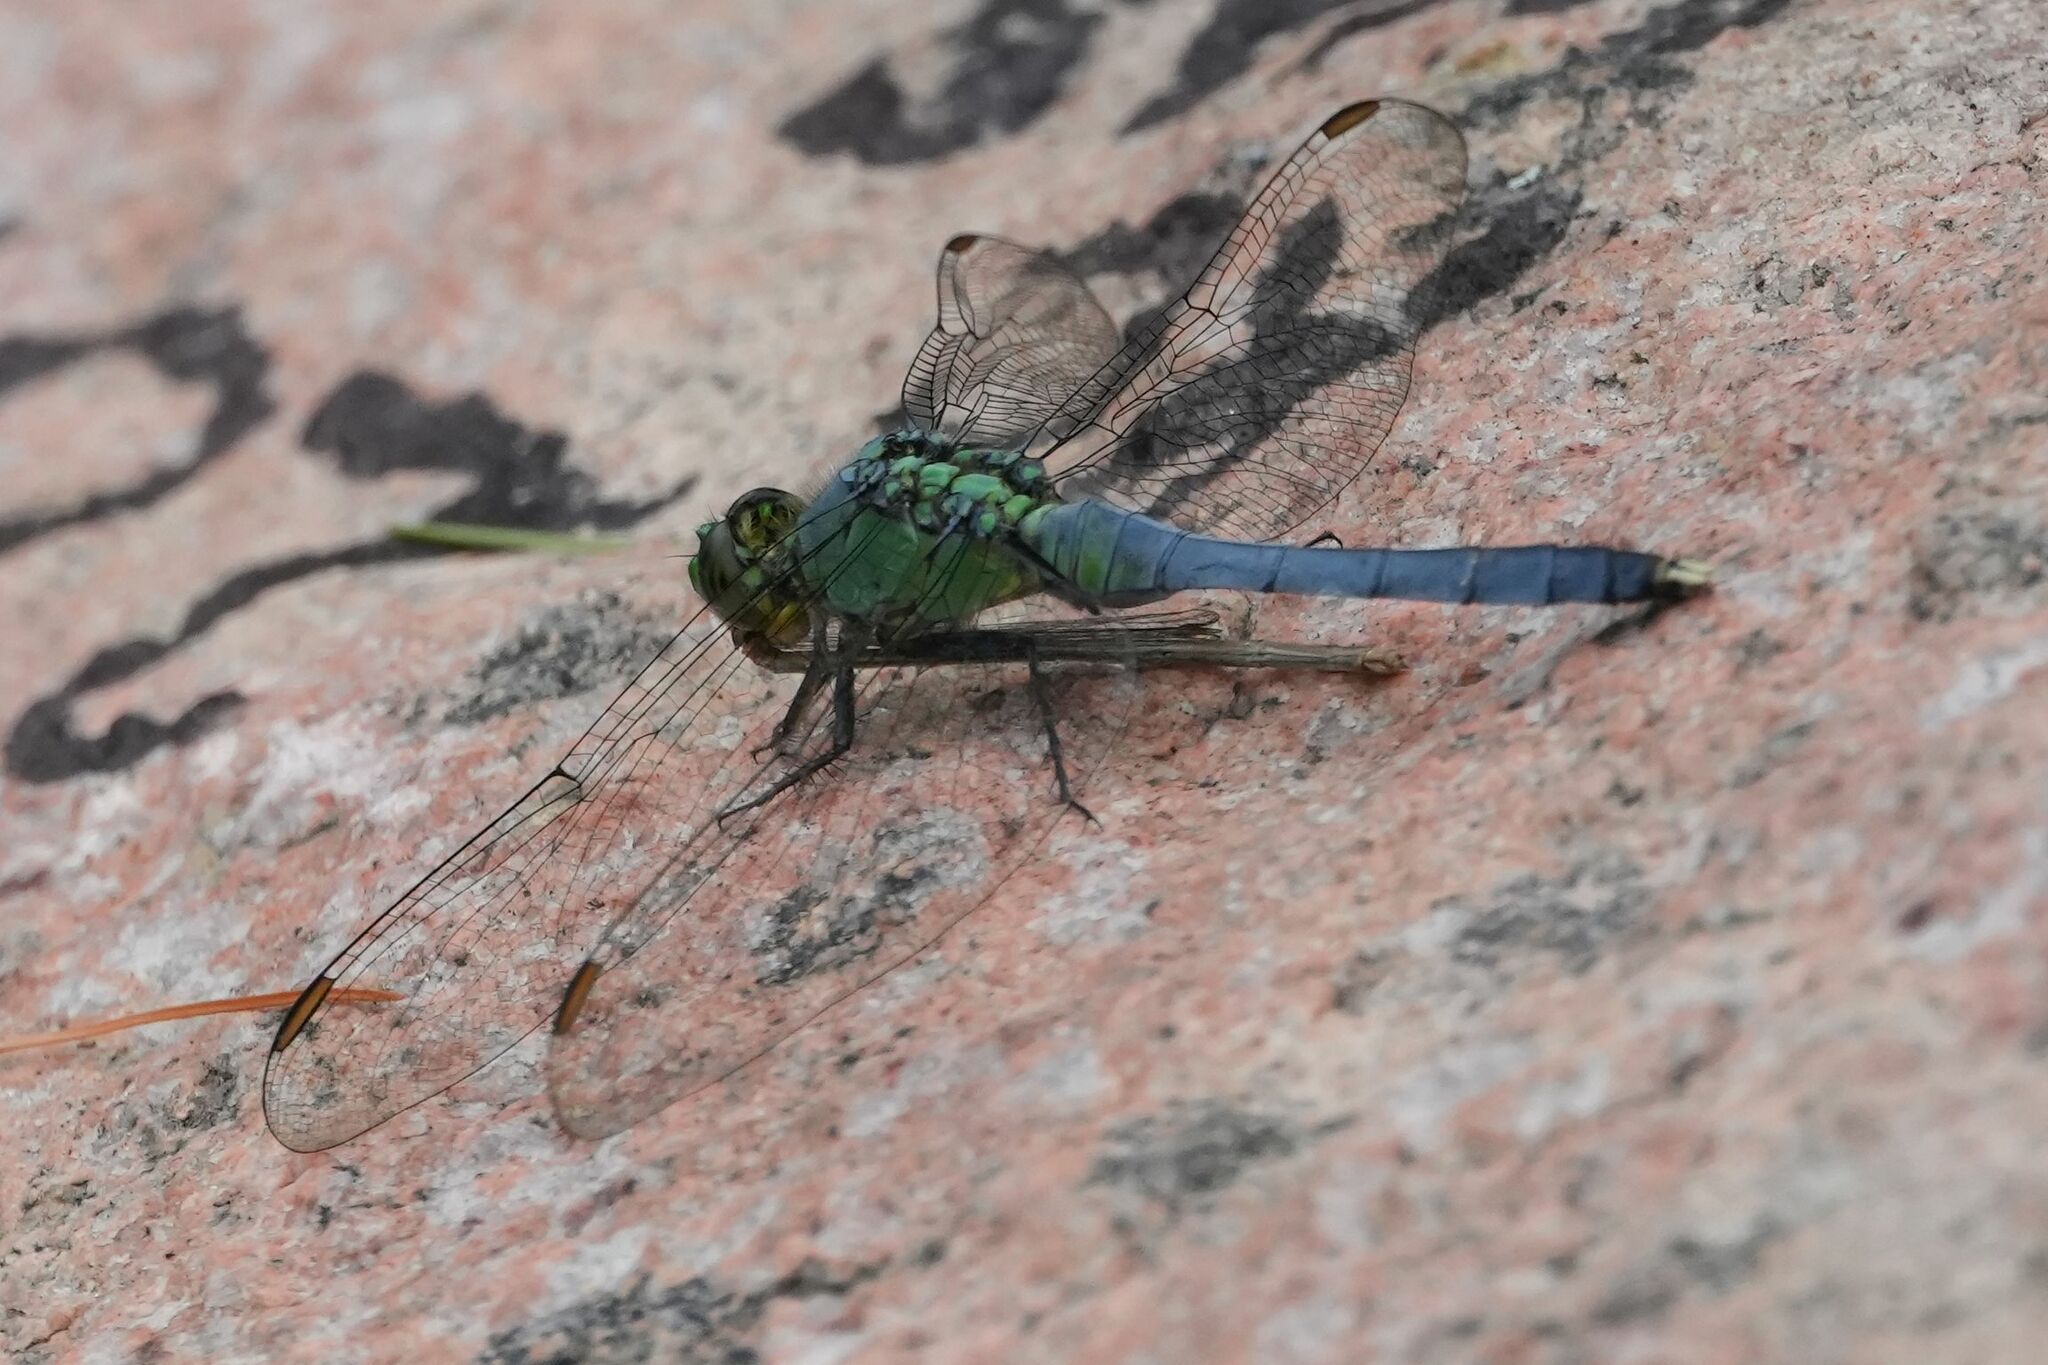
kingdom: Animalia
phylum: Arthropoda
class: Insecta
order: Odonata
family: Libellulidae
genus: Erythemis
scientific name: Erythemis simplicicollis
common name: Eastern pondhawk
